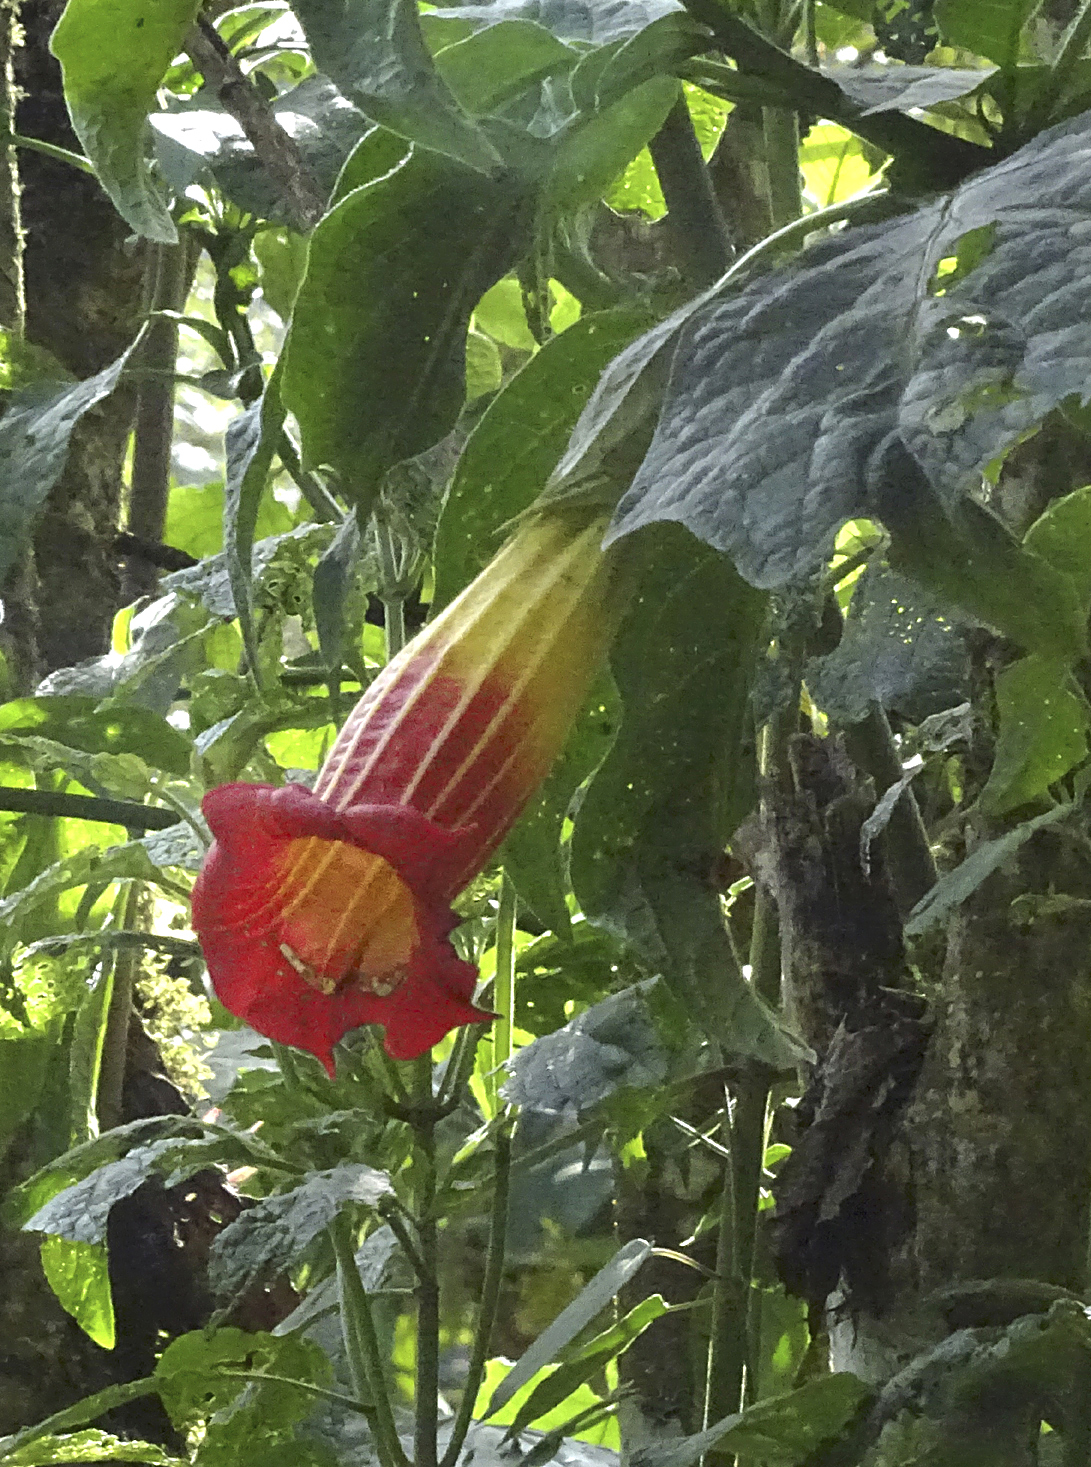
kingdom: Plantae
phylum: Tracheophyta
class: Magnoliopsida
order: Solanales
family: Solanaceae
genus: Brugmansia
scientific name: Brugmansia sanguinea
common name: Red floripontio
